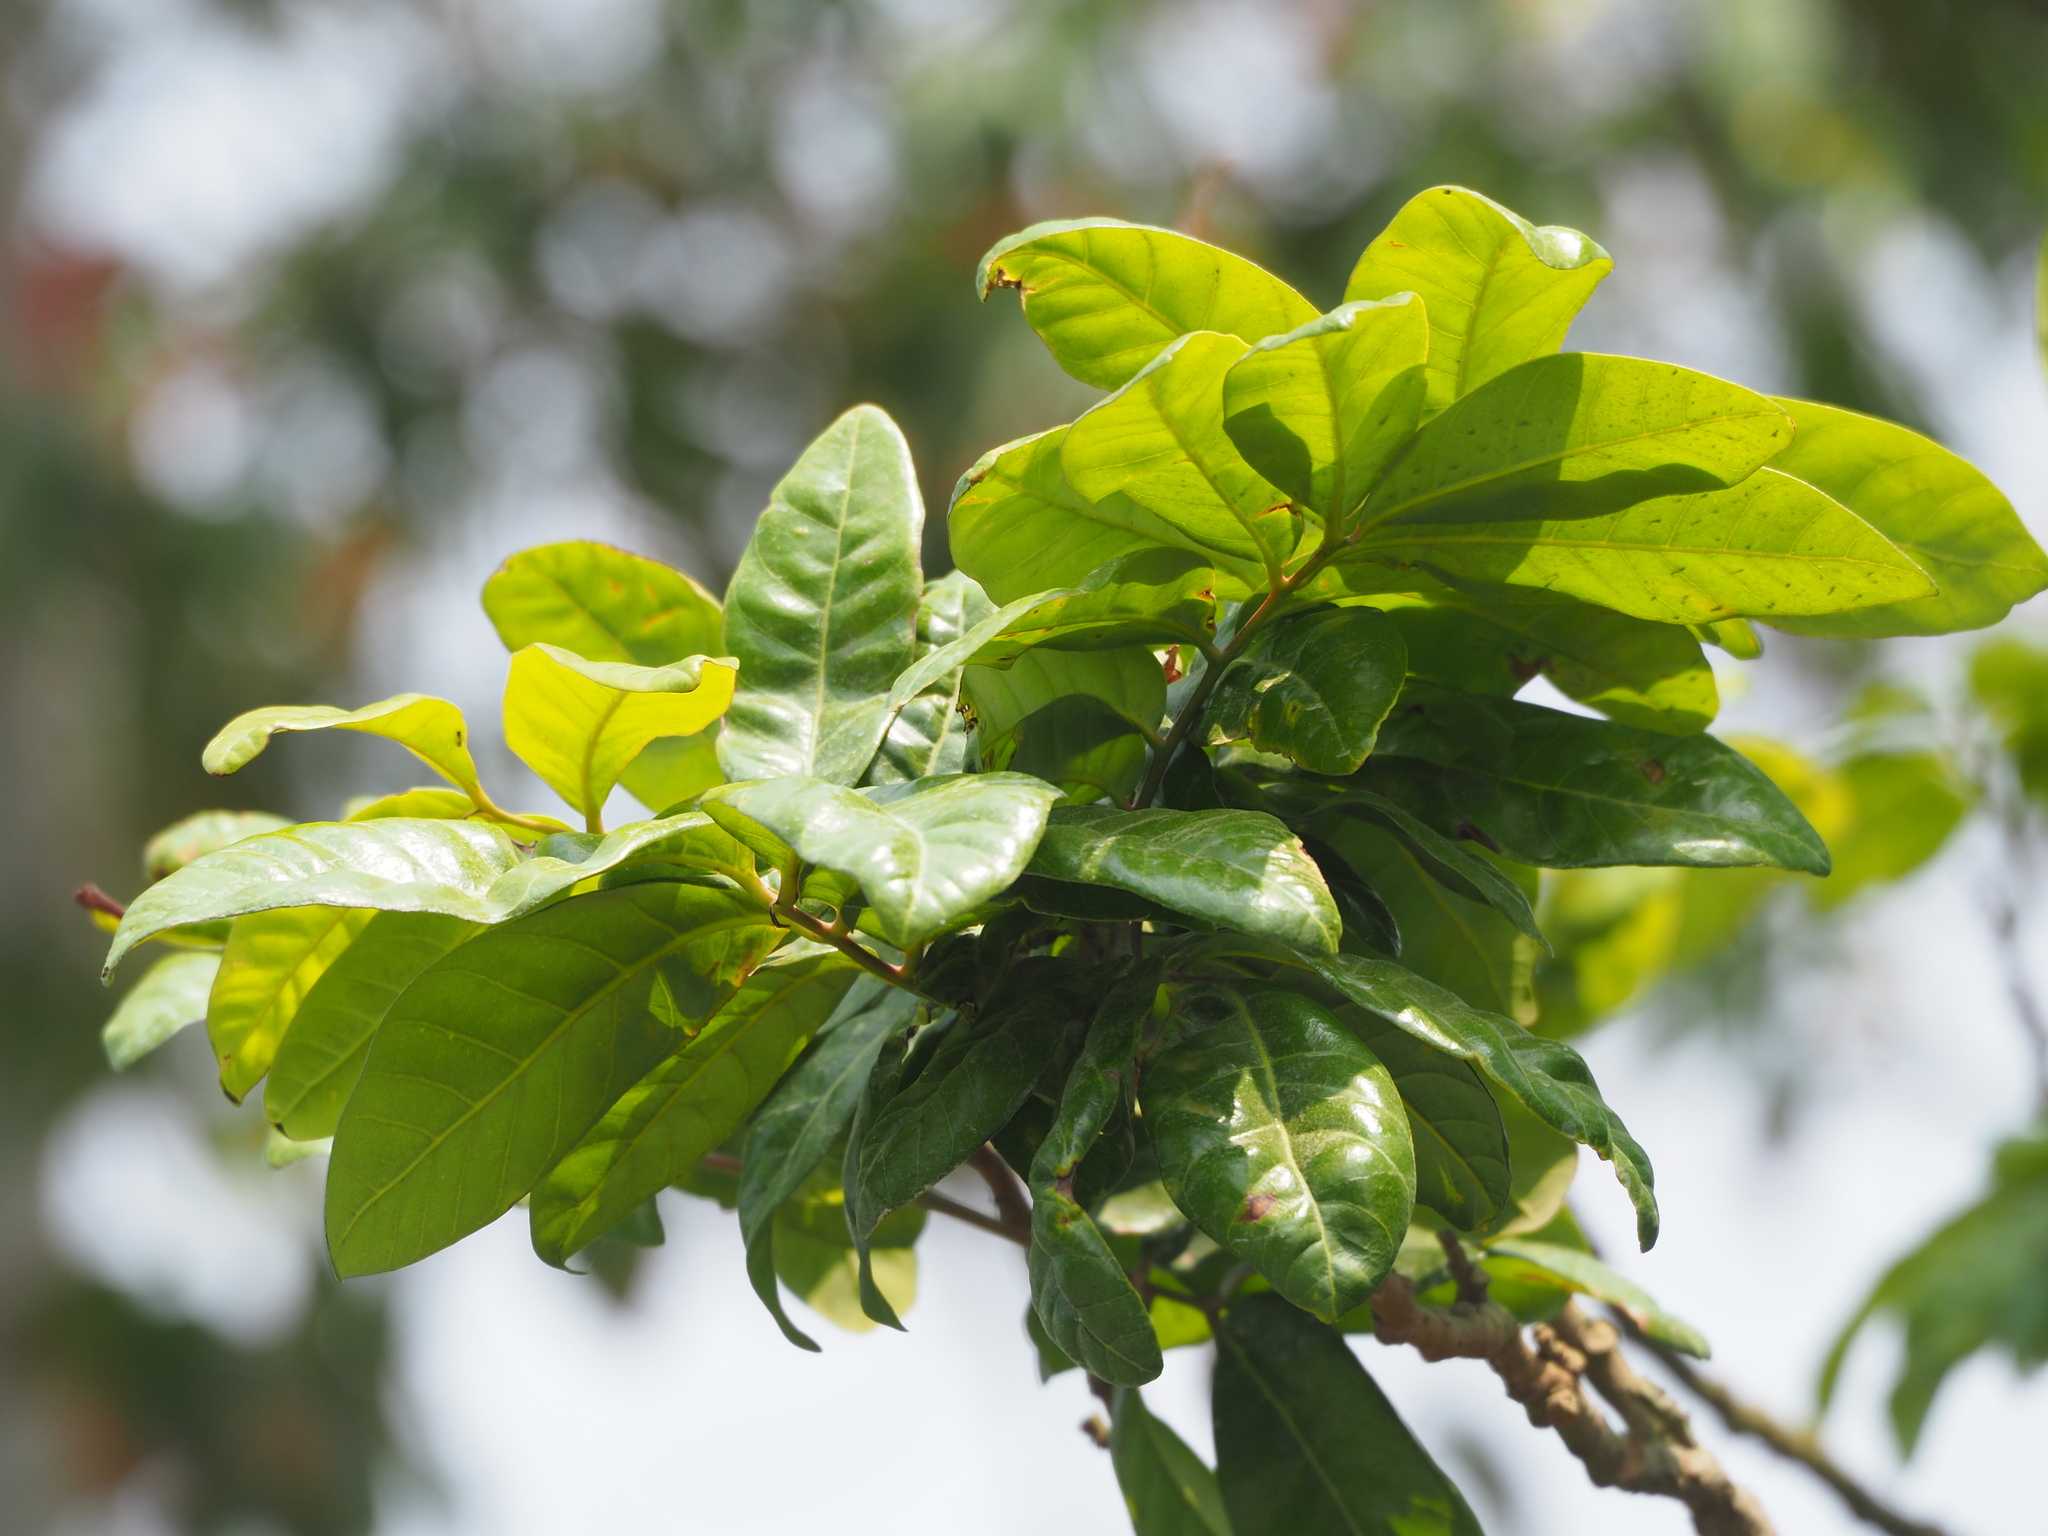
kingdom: Plantae
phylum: Tracheophyta
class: Magnoliopsida
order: Sapindales
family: Sapindaceae
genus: Dimocarpus
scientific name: Dimocarpus longan
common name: Longan
